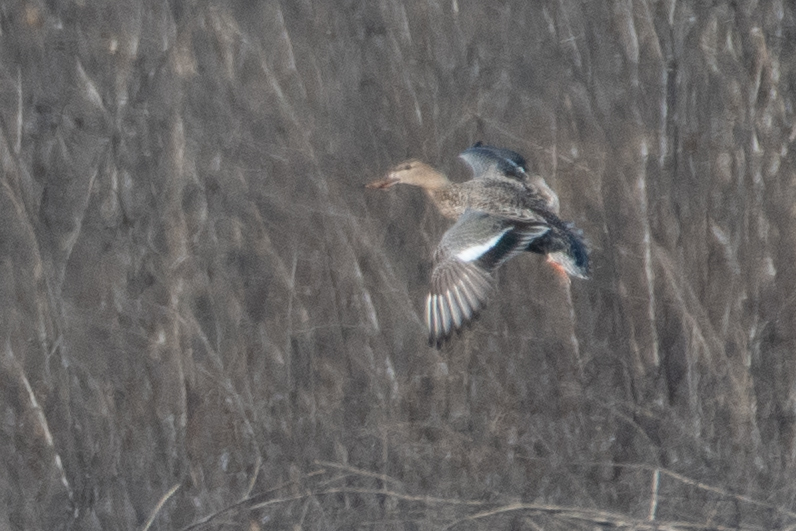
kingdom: Animalia
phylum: Chordata
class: Aves
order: Anseriformes
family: Anatidae
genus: Mareca
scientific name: Mareca strepera
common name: Gadwall
